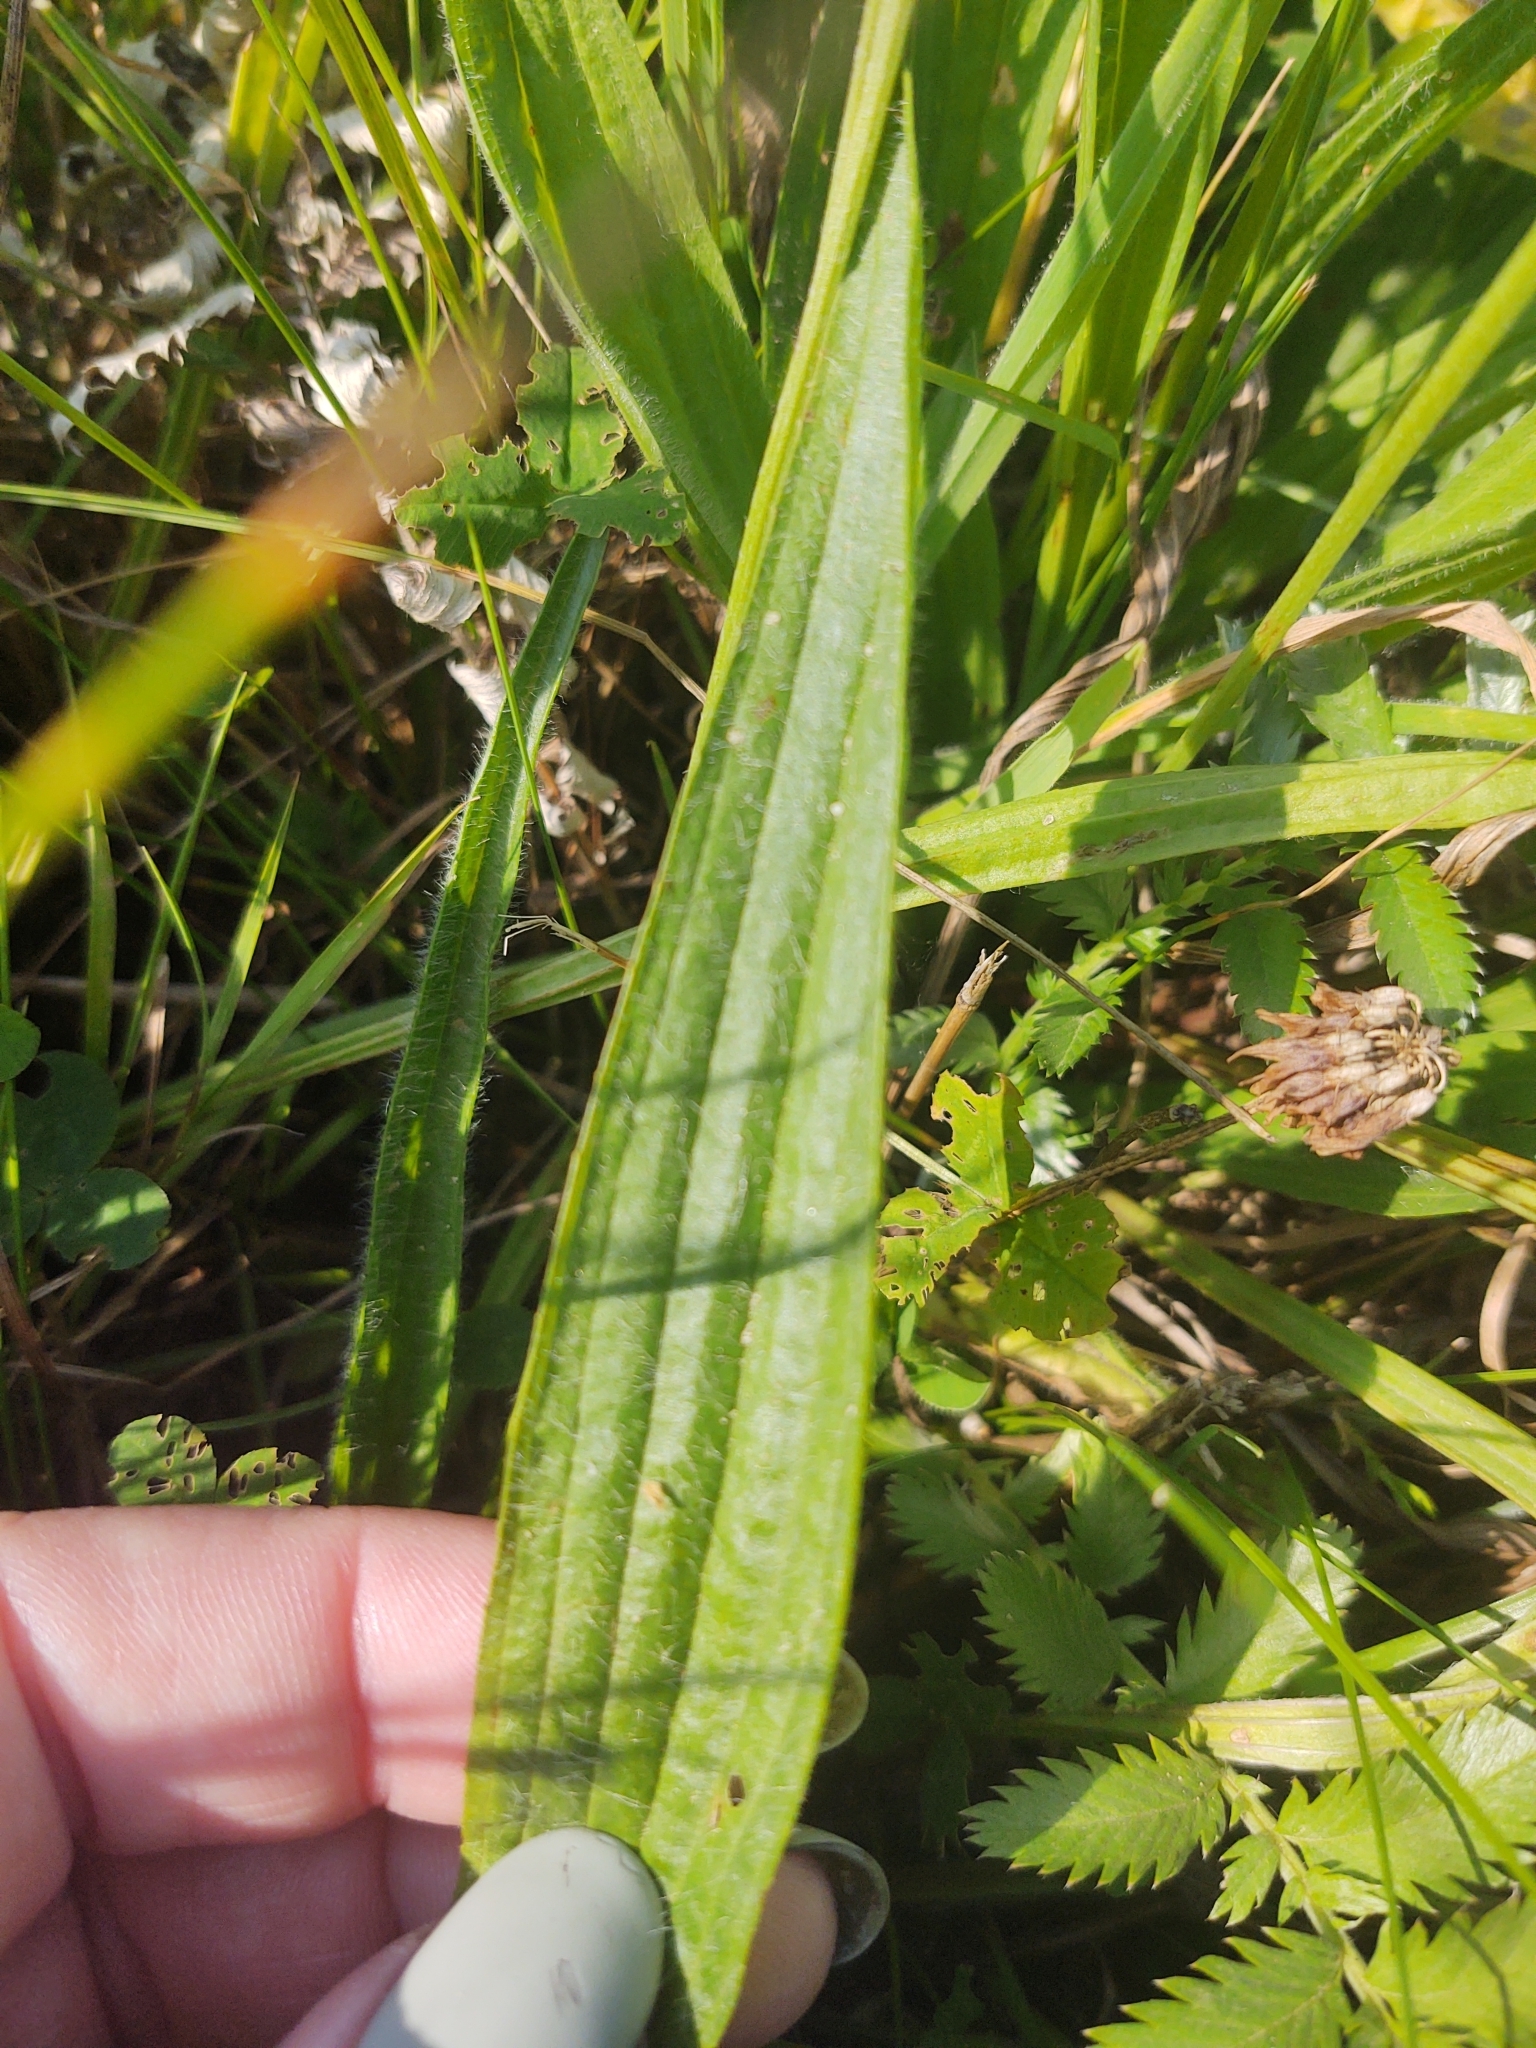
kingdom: Plantae
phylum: Tracheophyta
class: Magnoliopsida
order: Lamiales
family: Plantaginaceae
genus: Plantago
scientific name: Plantago lanceolata
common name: Ribwort plantain
